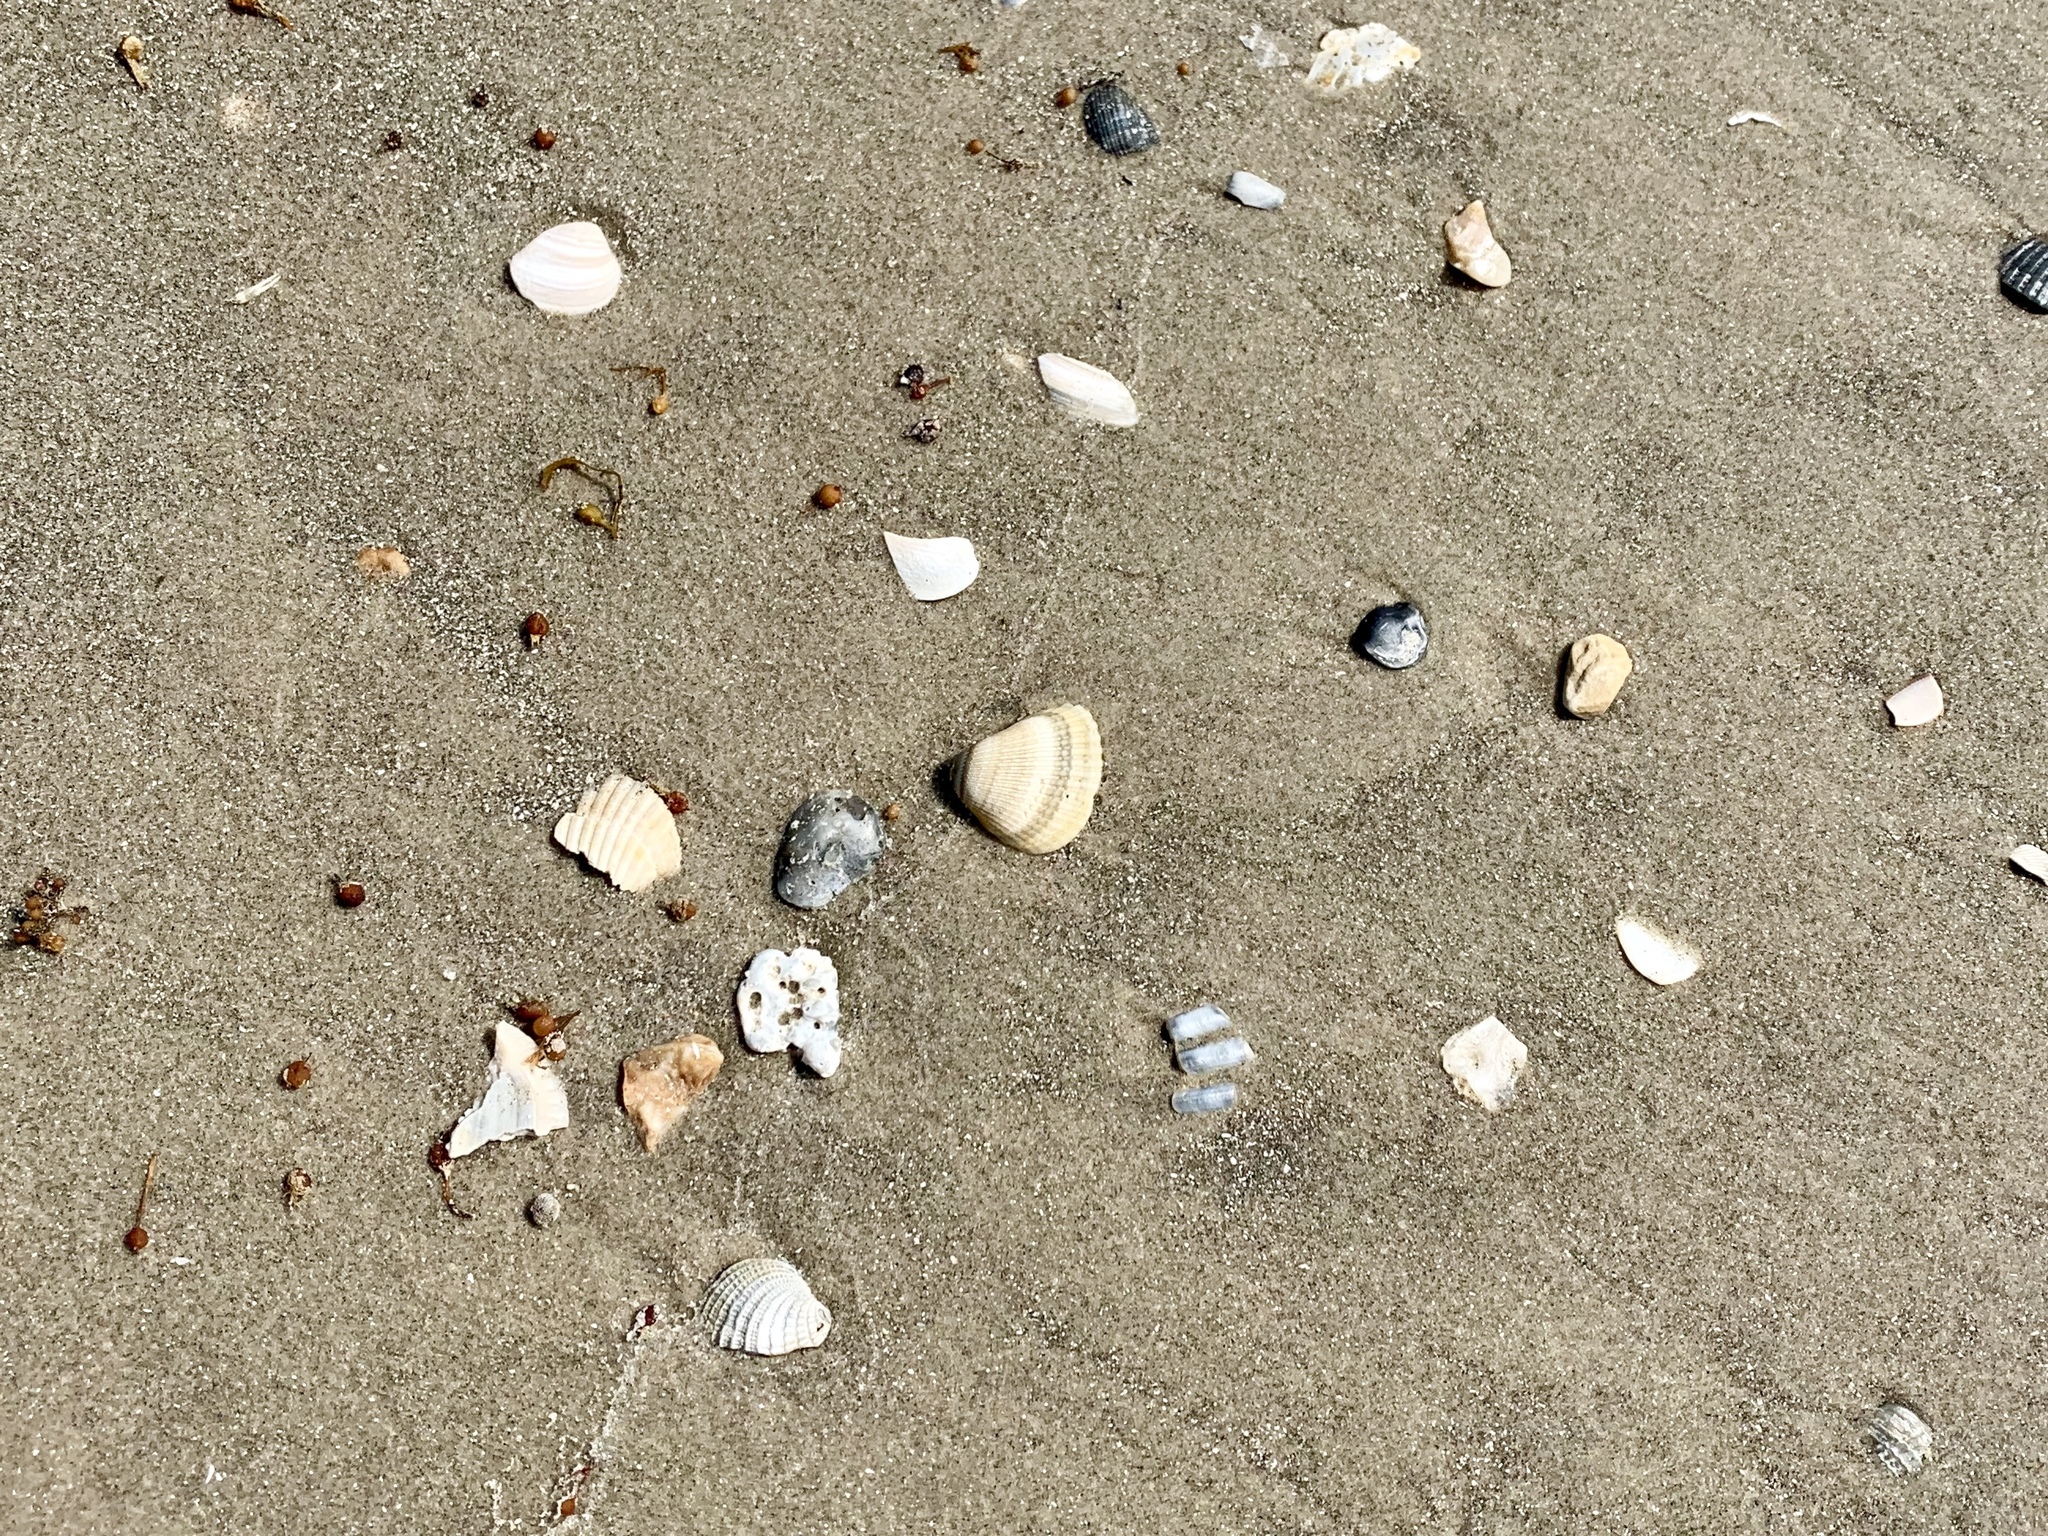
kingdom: Animalia
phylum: Mollusca
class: Bivalvia
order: Arcida
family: Noetiidae
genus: Noetia
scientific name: Noetia ponderosa
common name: Ponderous ark
